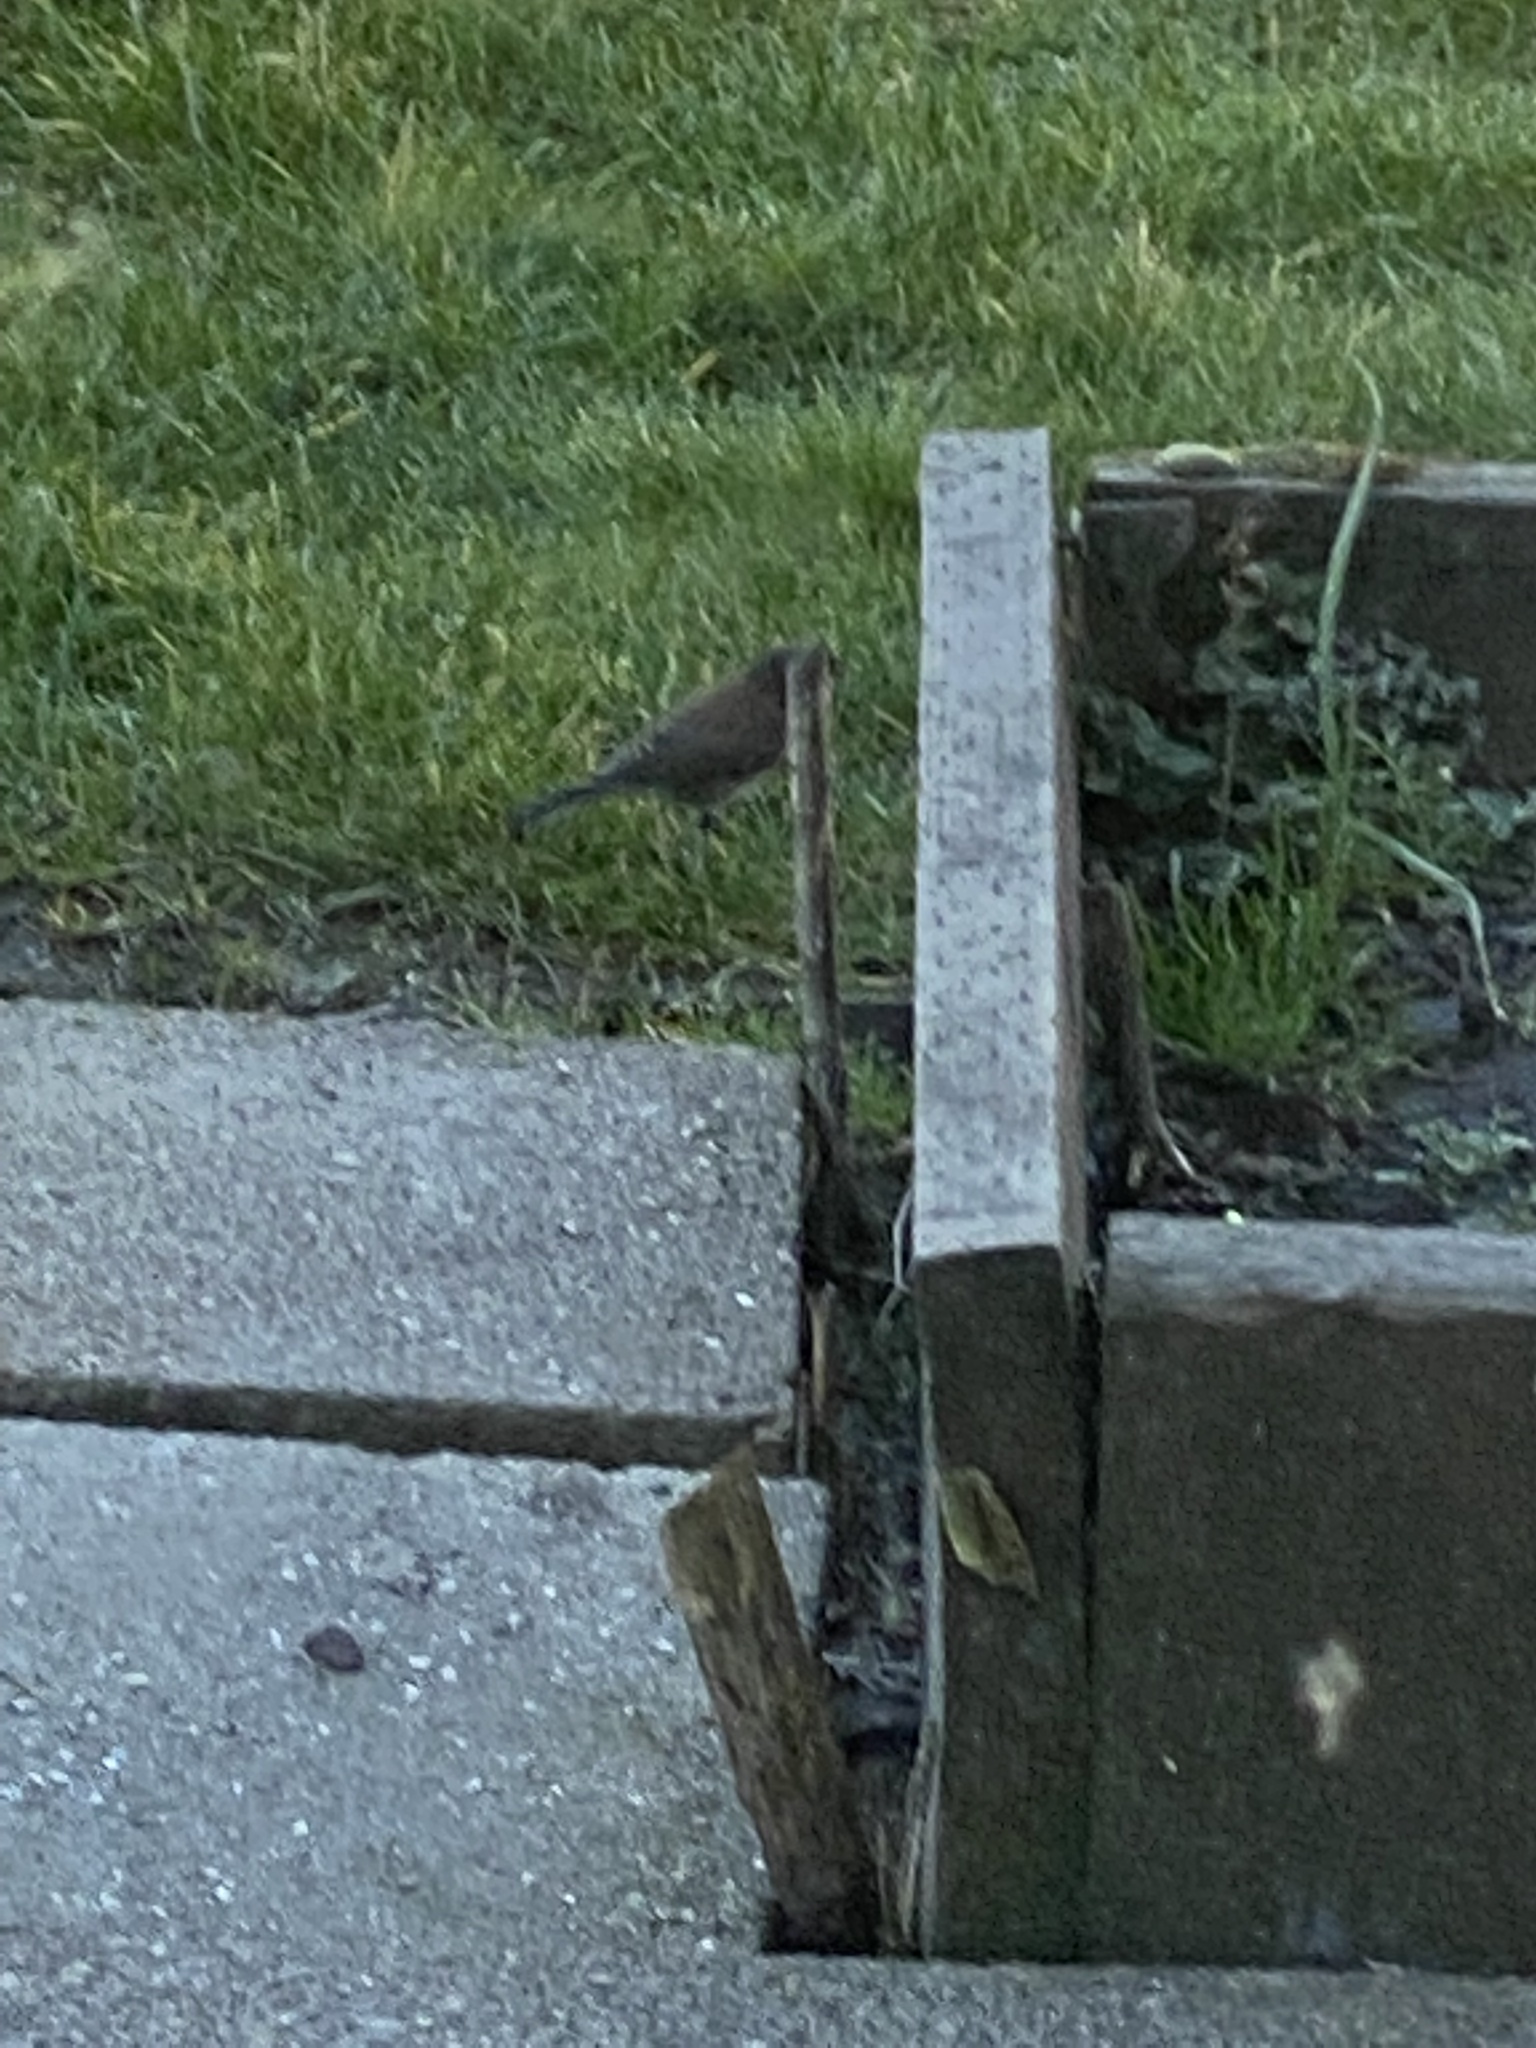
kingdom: Animalia
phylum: Chordata
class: Aves
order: Passeriformes
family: Passerellidae
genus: Junco
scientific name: Junco hyemalis
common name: Dark-eyed junco
